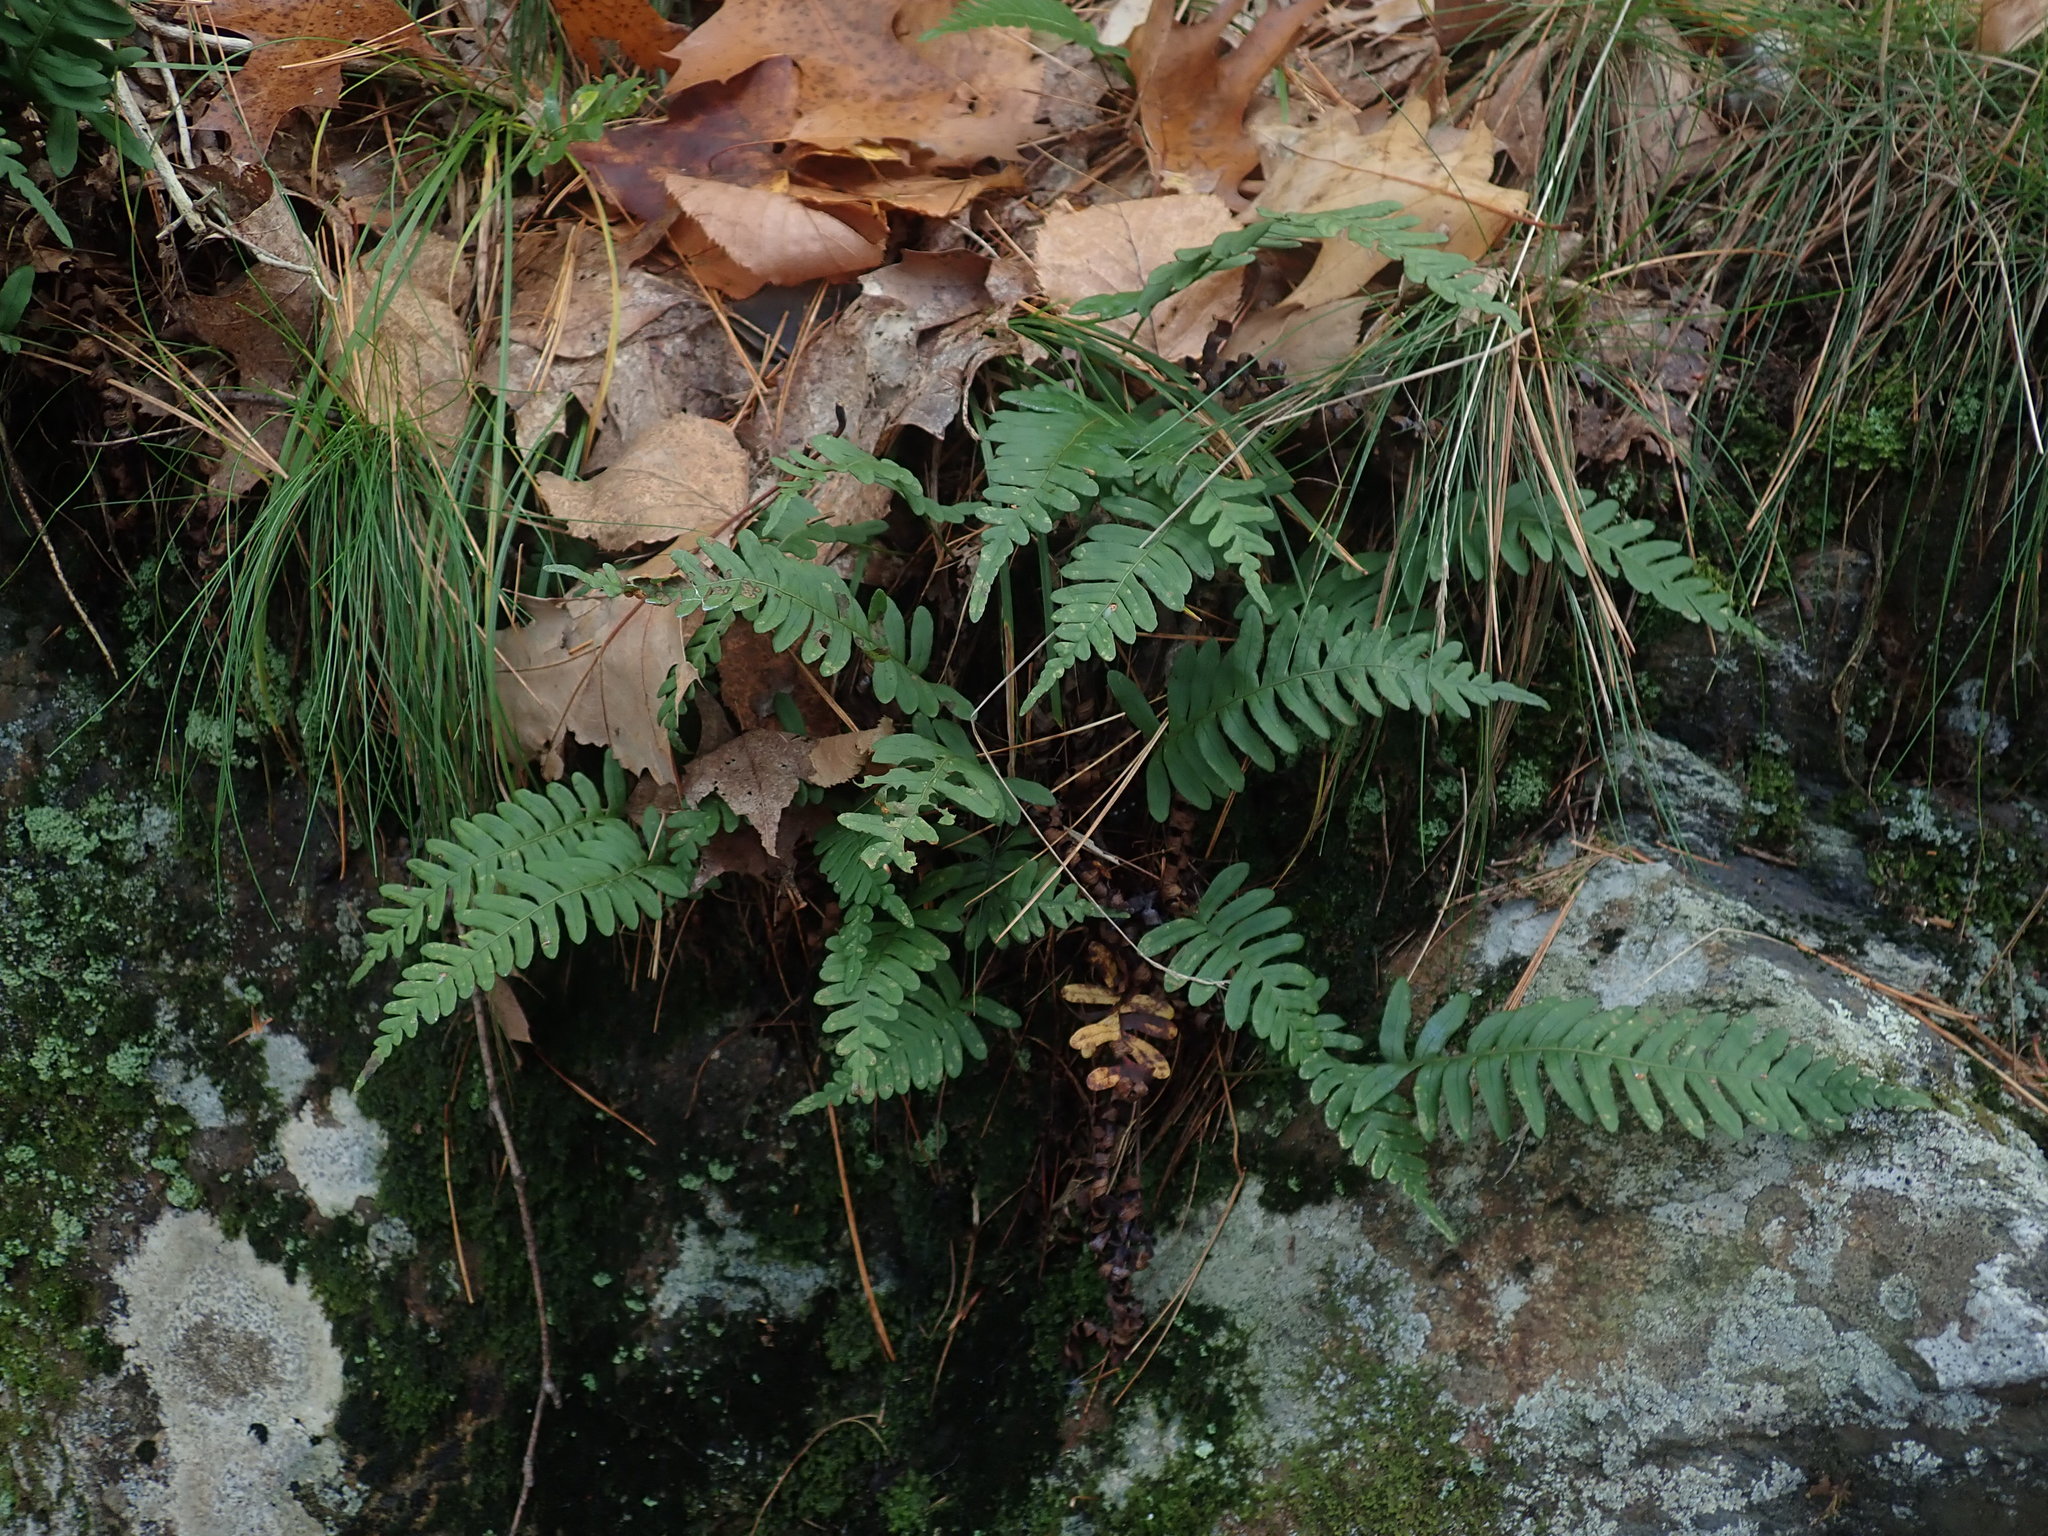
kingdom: Plantae
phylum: Tracheophyta
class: Polypodiopsida
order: Polypodiales
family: Polypodiaceae
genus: Polypodium
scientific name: Polypodium
